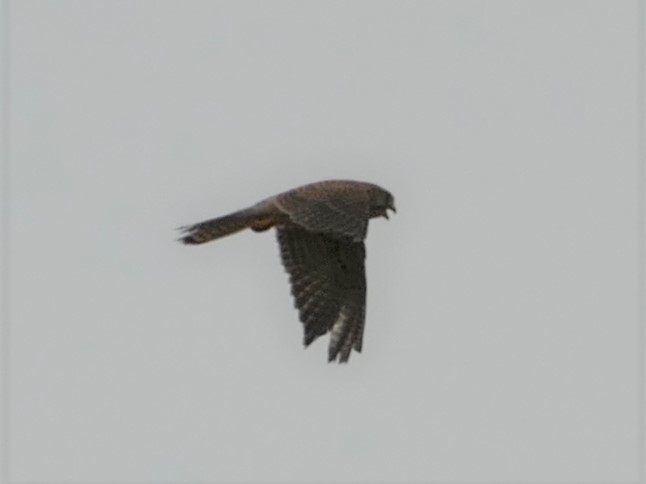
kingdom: Animalia
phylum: Chordata
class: Aves
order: Falconiformes
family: Falconidae
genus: Falco
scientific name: Falco tinnunculus
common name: Common kestrel
